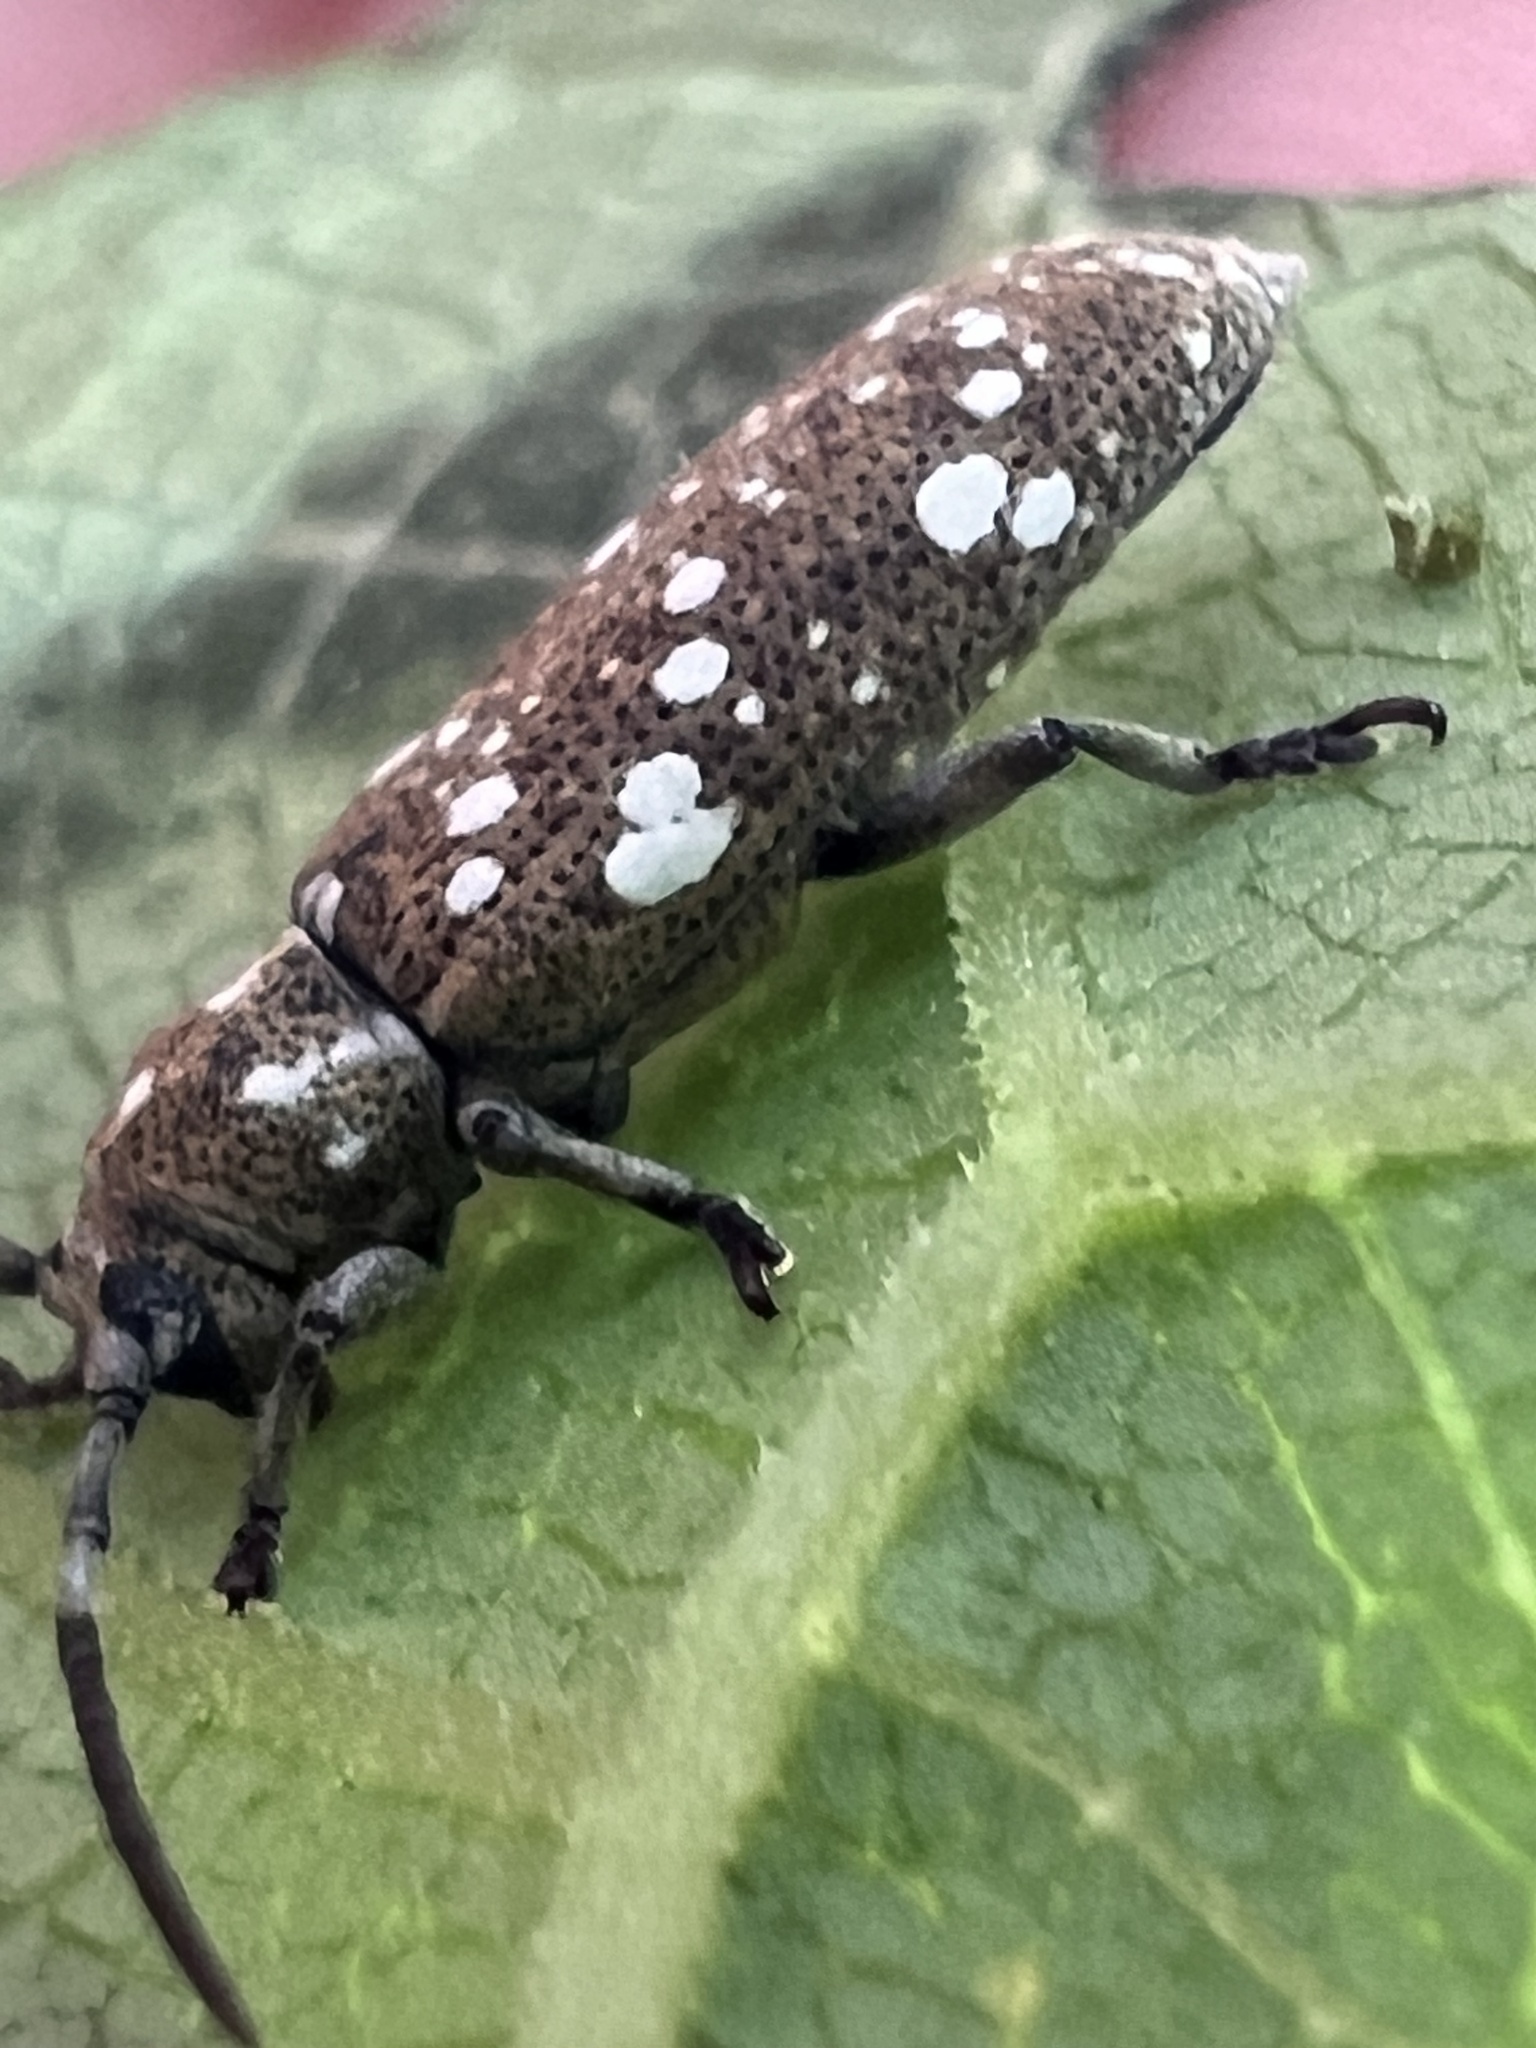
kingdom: Animalia
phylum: Arthropoda
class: Insecta
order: Coleoptera
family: Cerambycidae
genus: Apomecyna
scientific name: Apomecyna histrio
